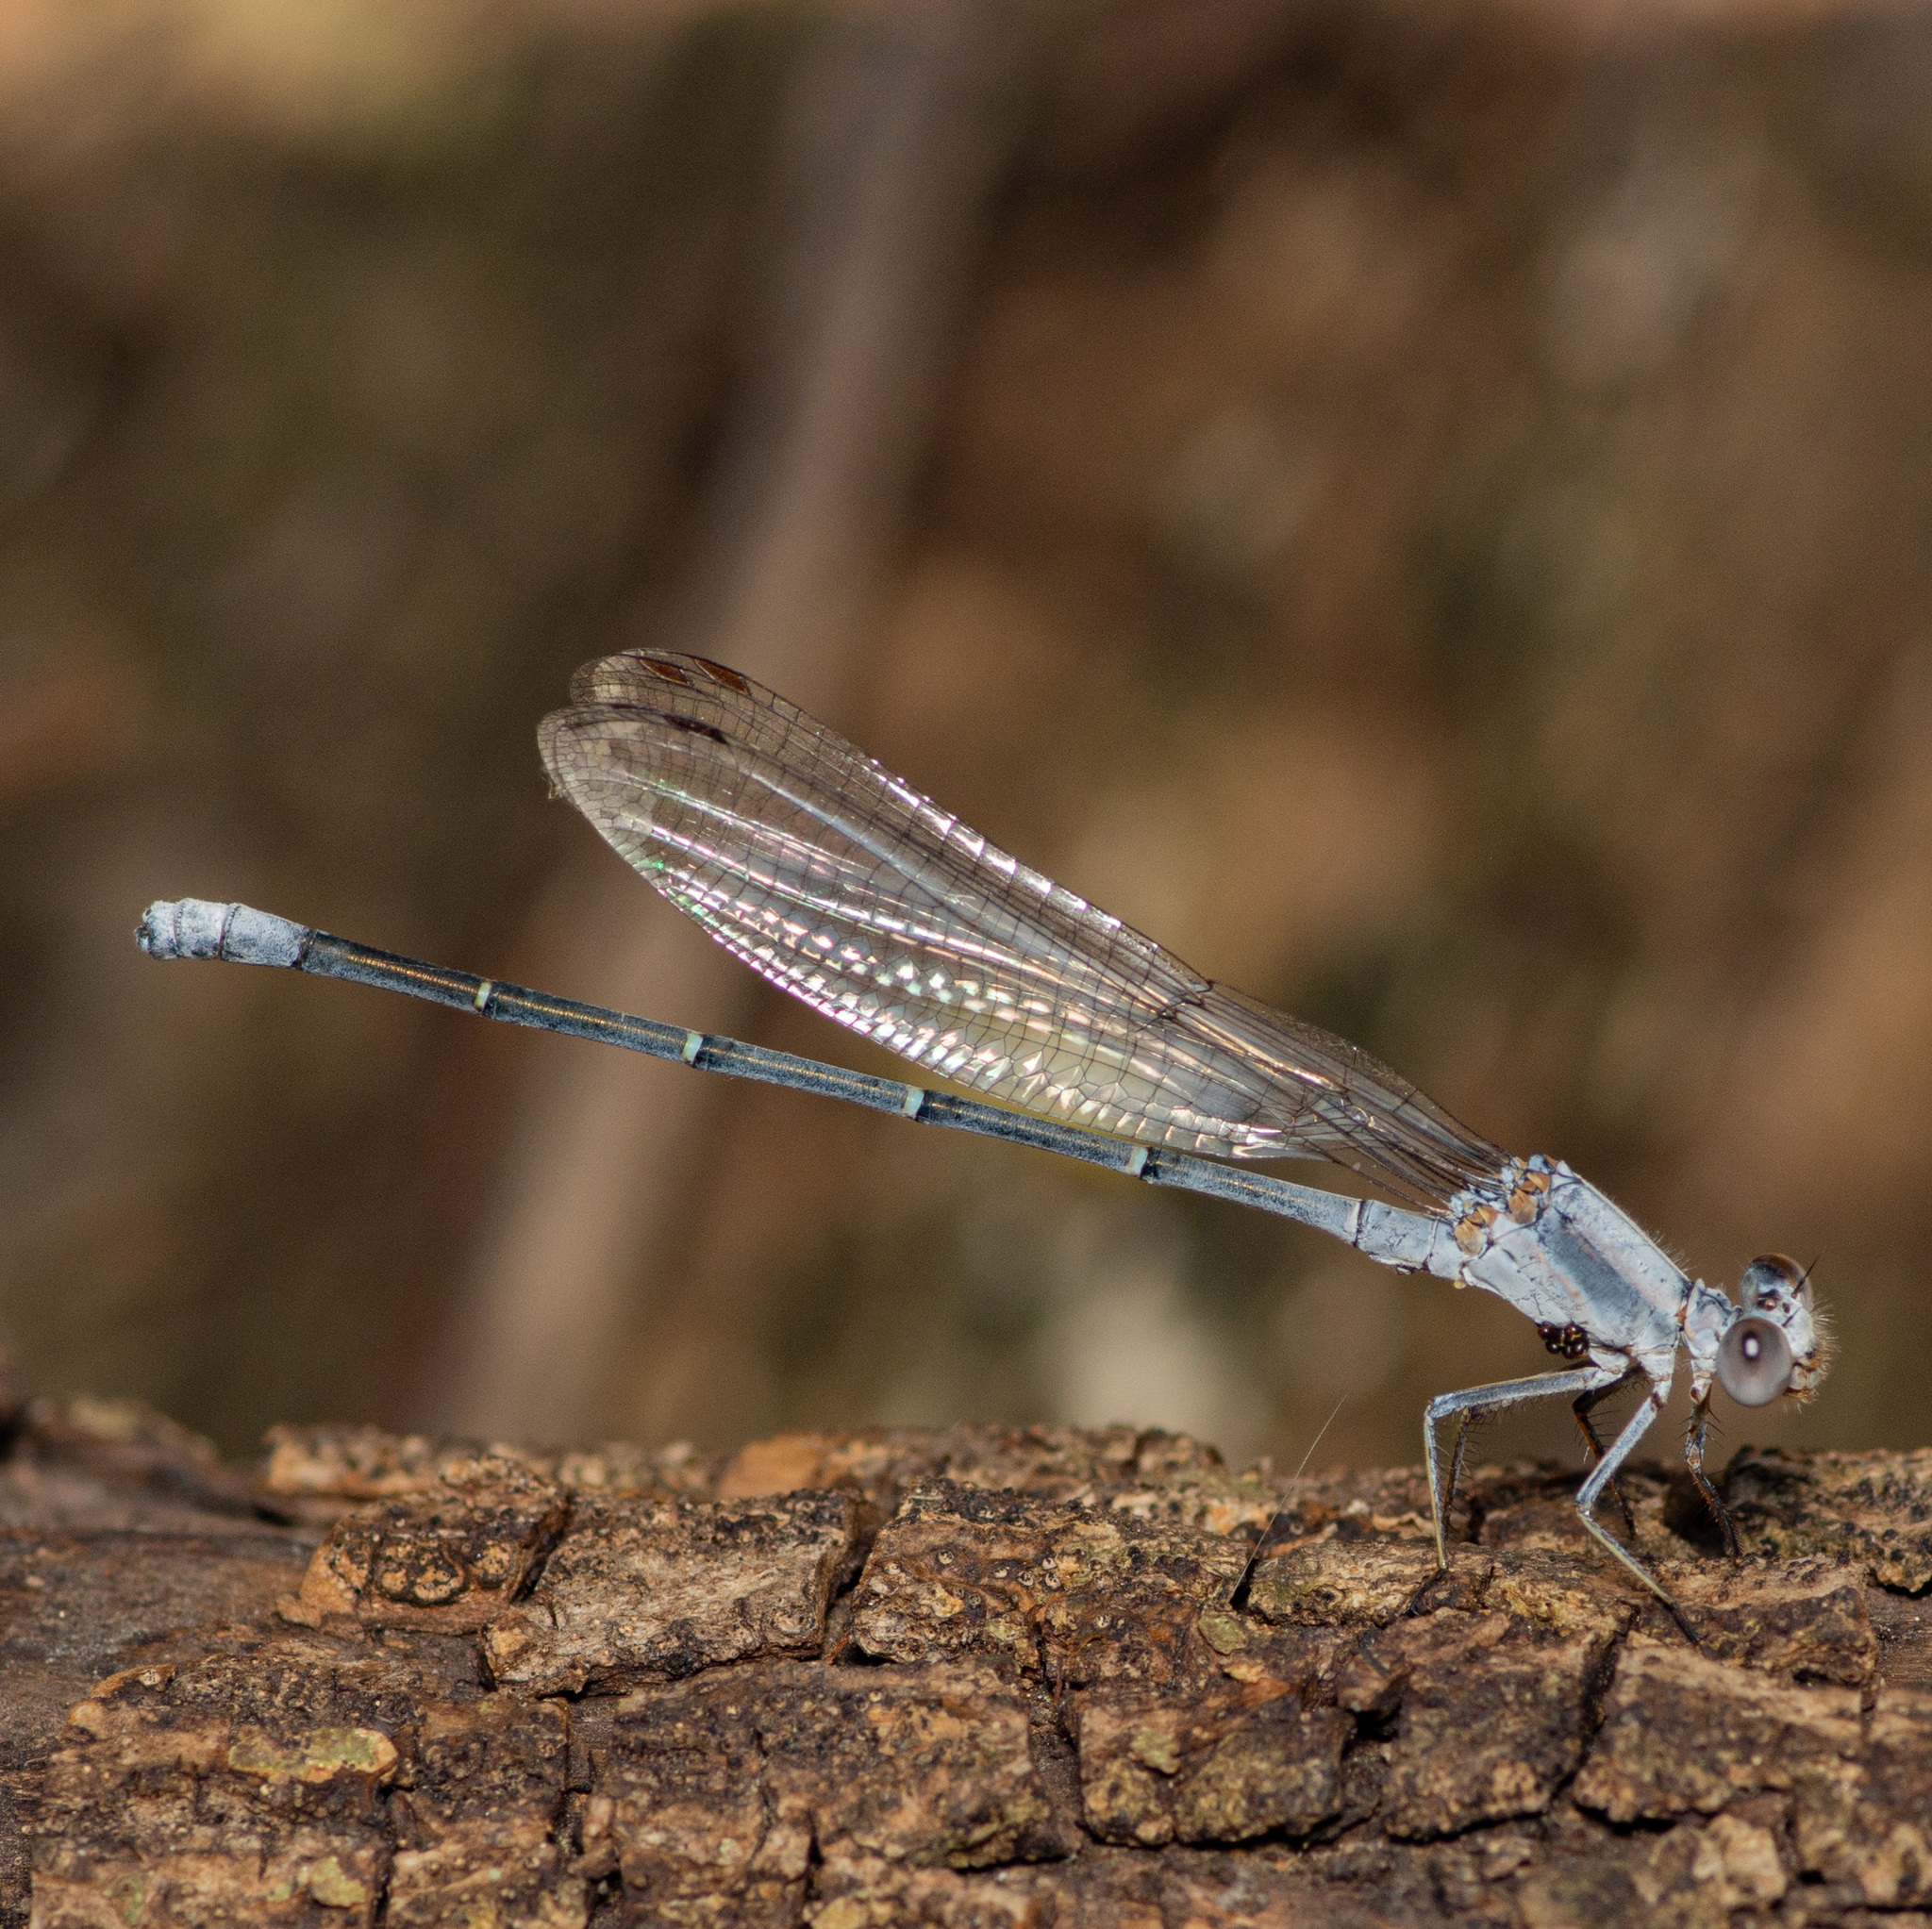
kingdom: Animalia
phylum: Arthropoda
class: Insecta
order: Odonata
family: Coenagrionidae
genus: Argia
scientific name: Argia moesta
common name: Powdered dancer
